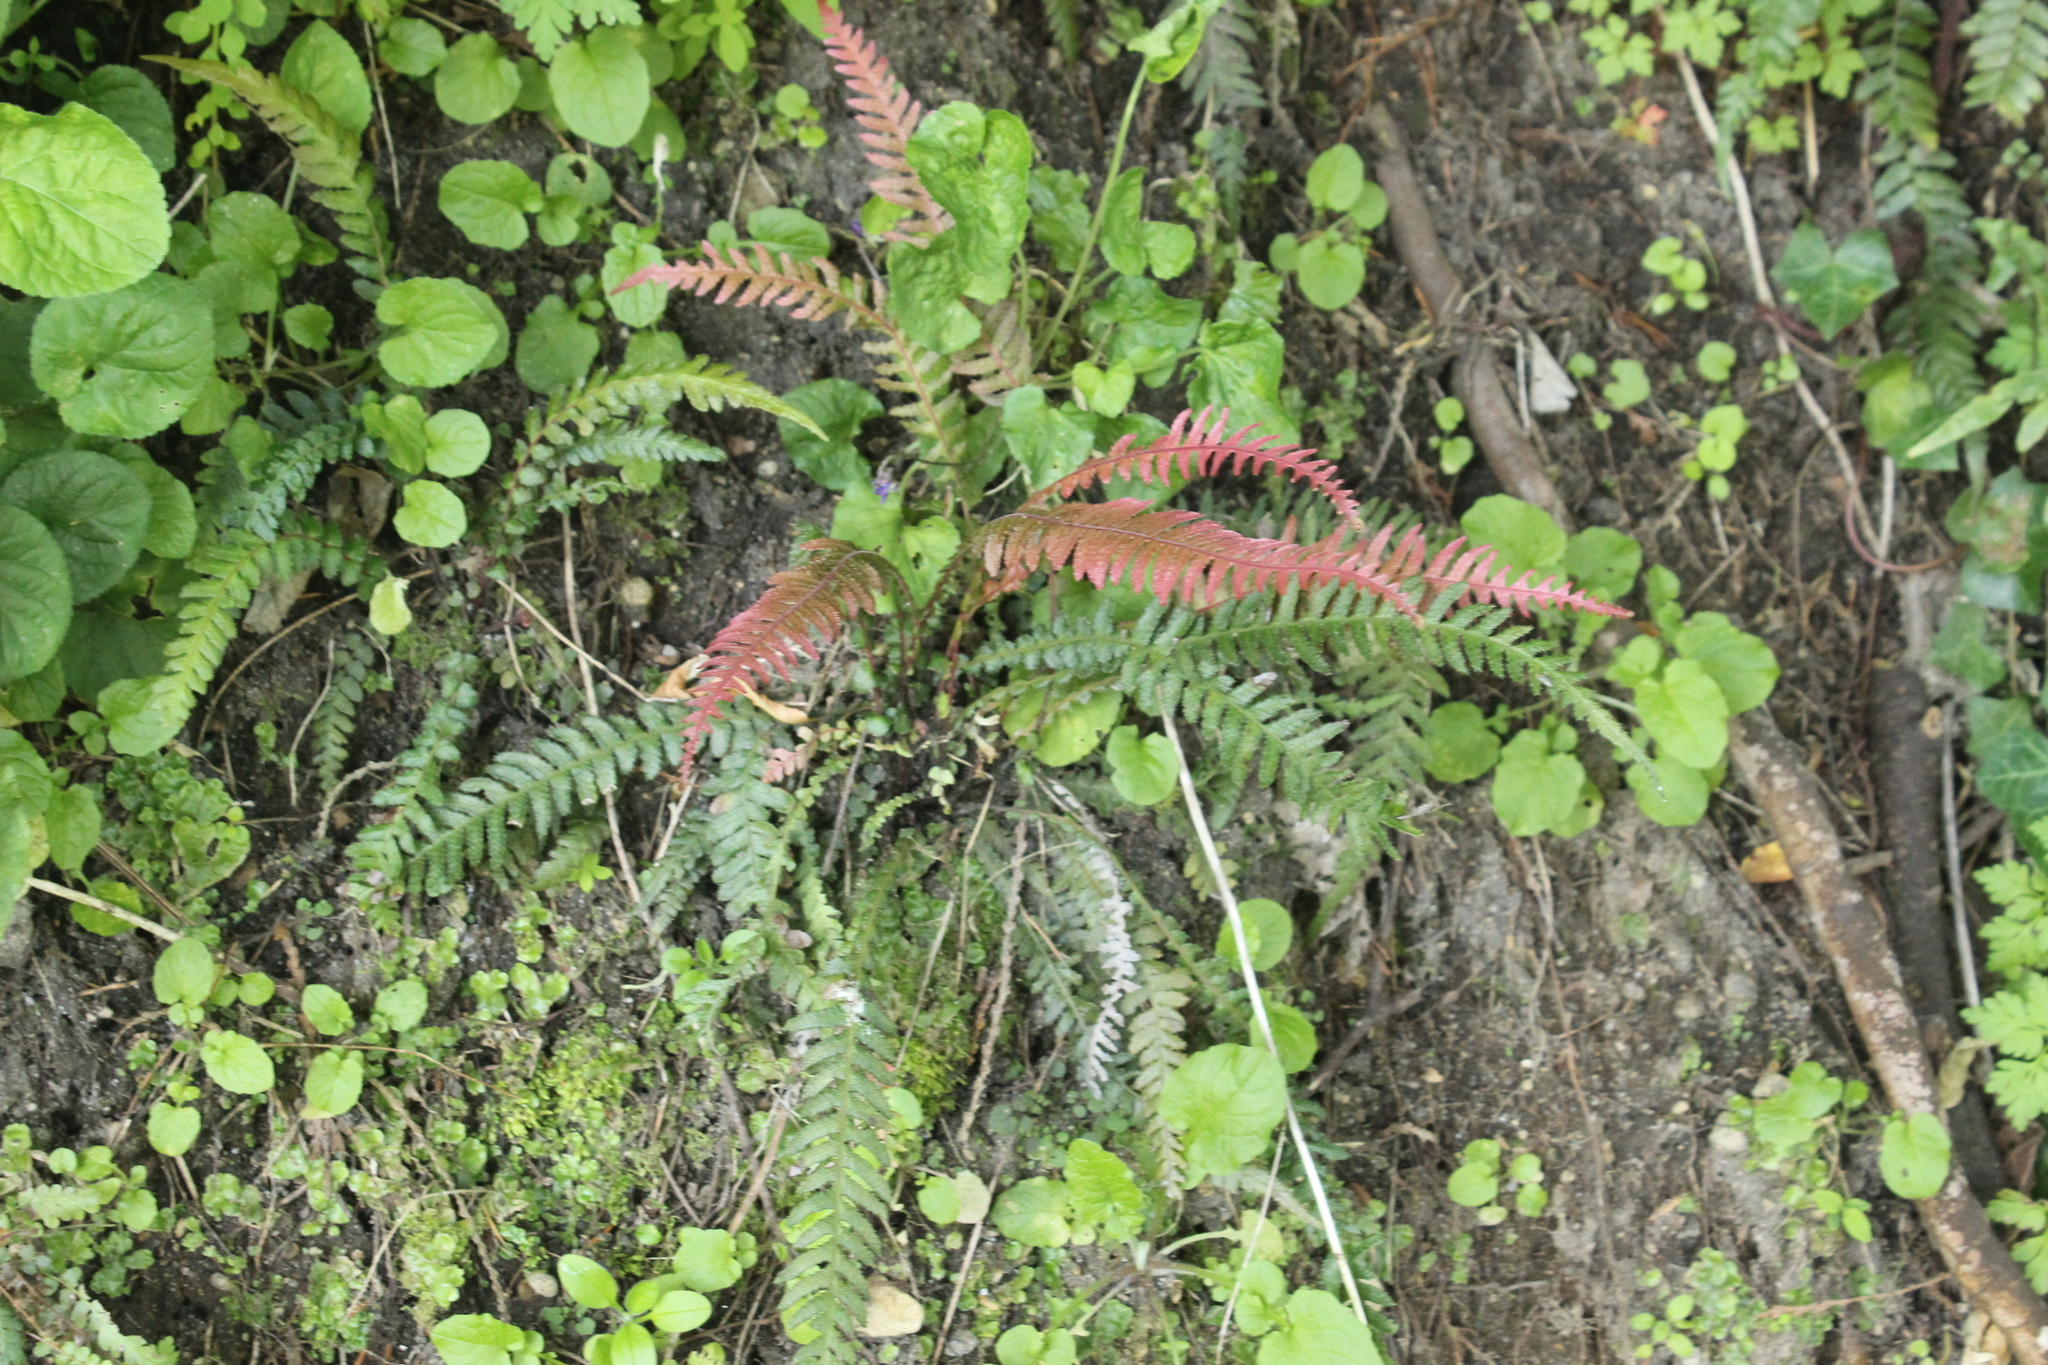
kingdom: Plantae
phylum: Tracheophyta
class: Polypodiopsida
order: Polypodiales
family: Blechnaceae
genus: Doodia
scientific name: Doodia australis
